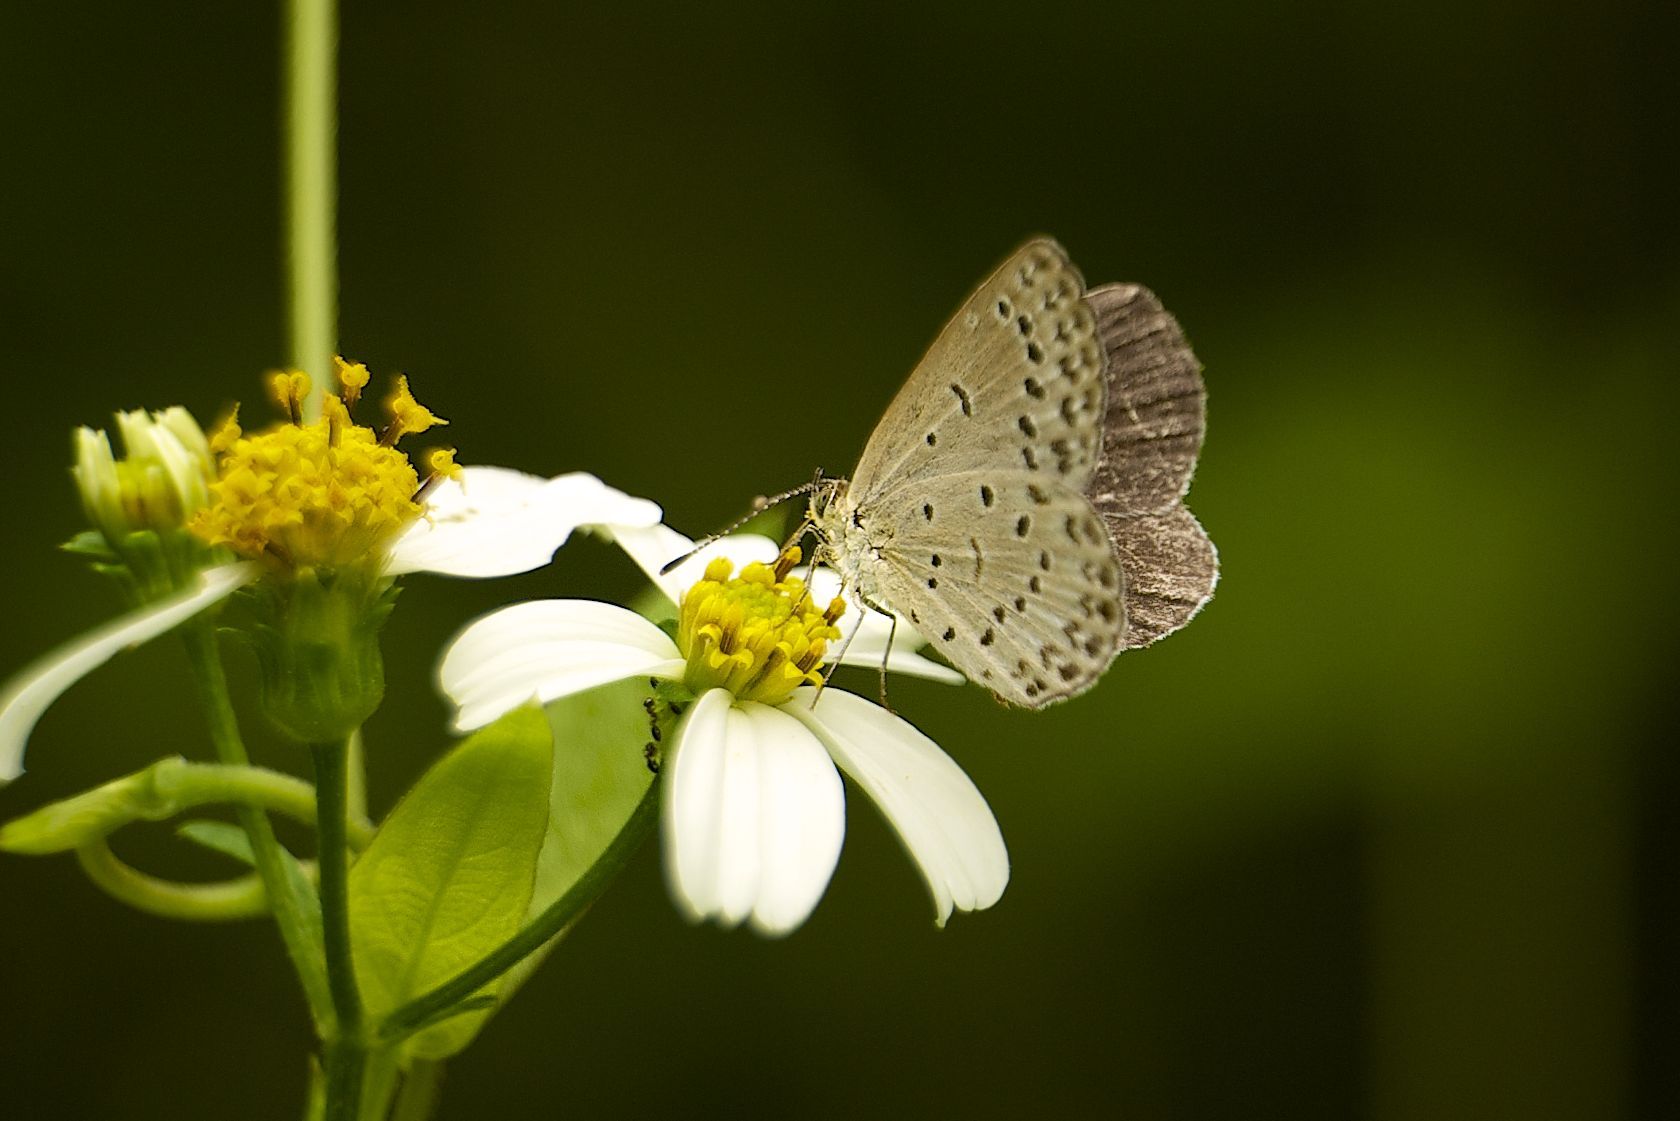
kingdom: Animalia
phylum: Arthropoda
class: Insecta
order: Lepidoptera
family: Lycaenidae
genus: Pseudozizeeria
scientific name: Pseudozizeeria maha
